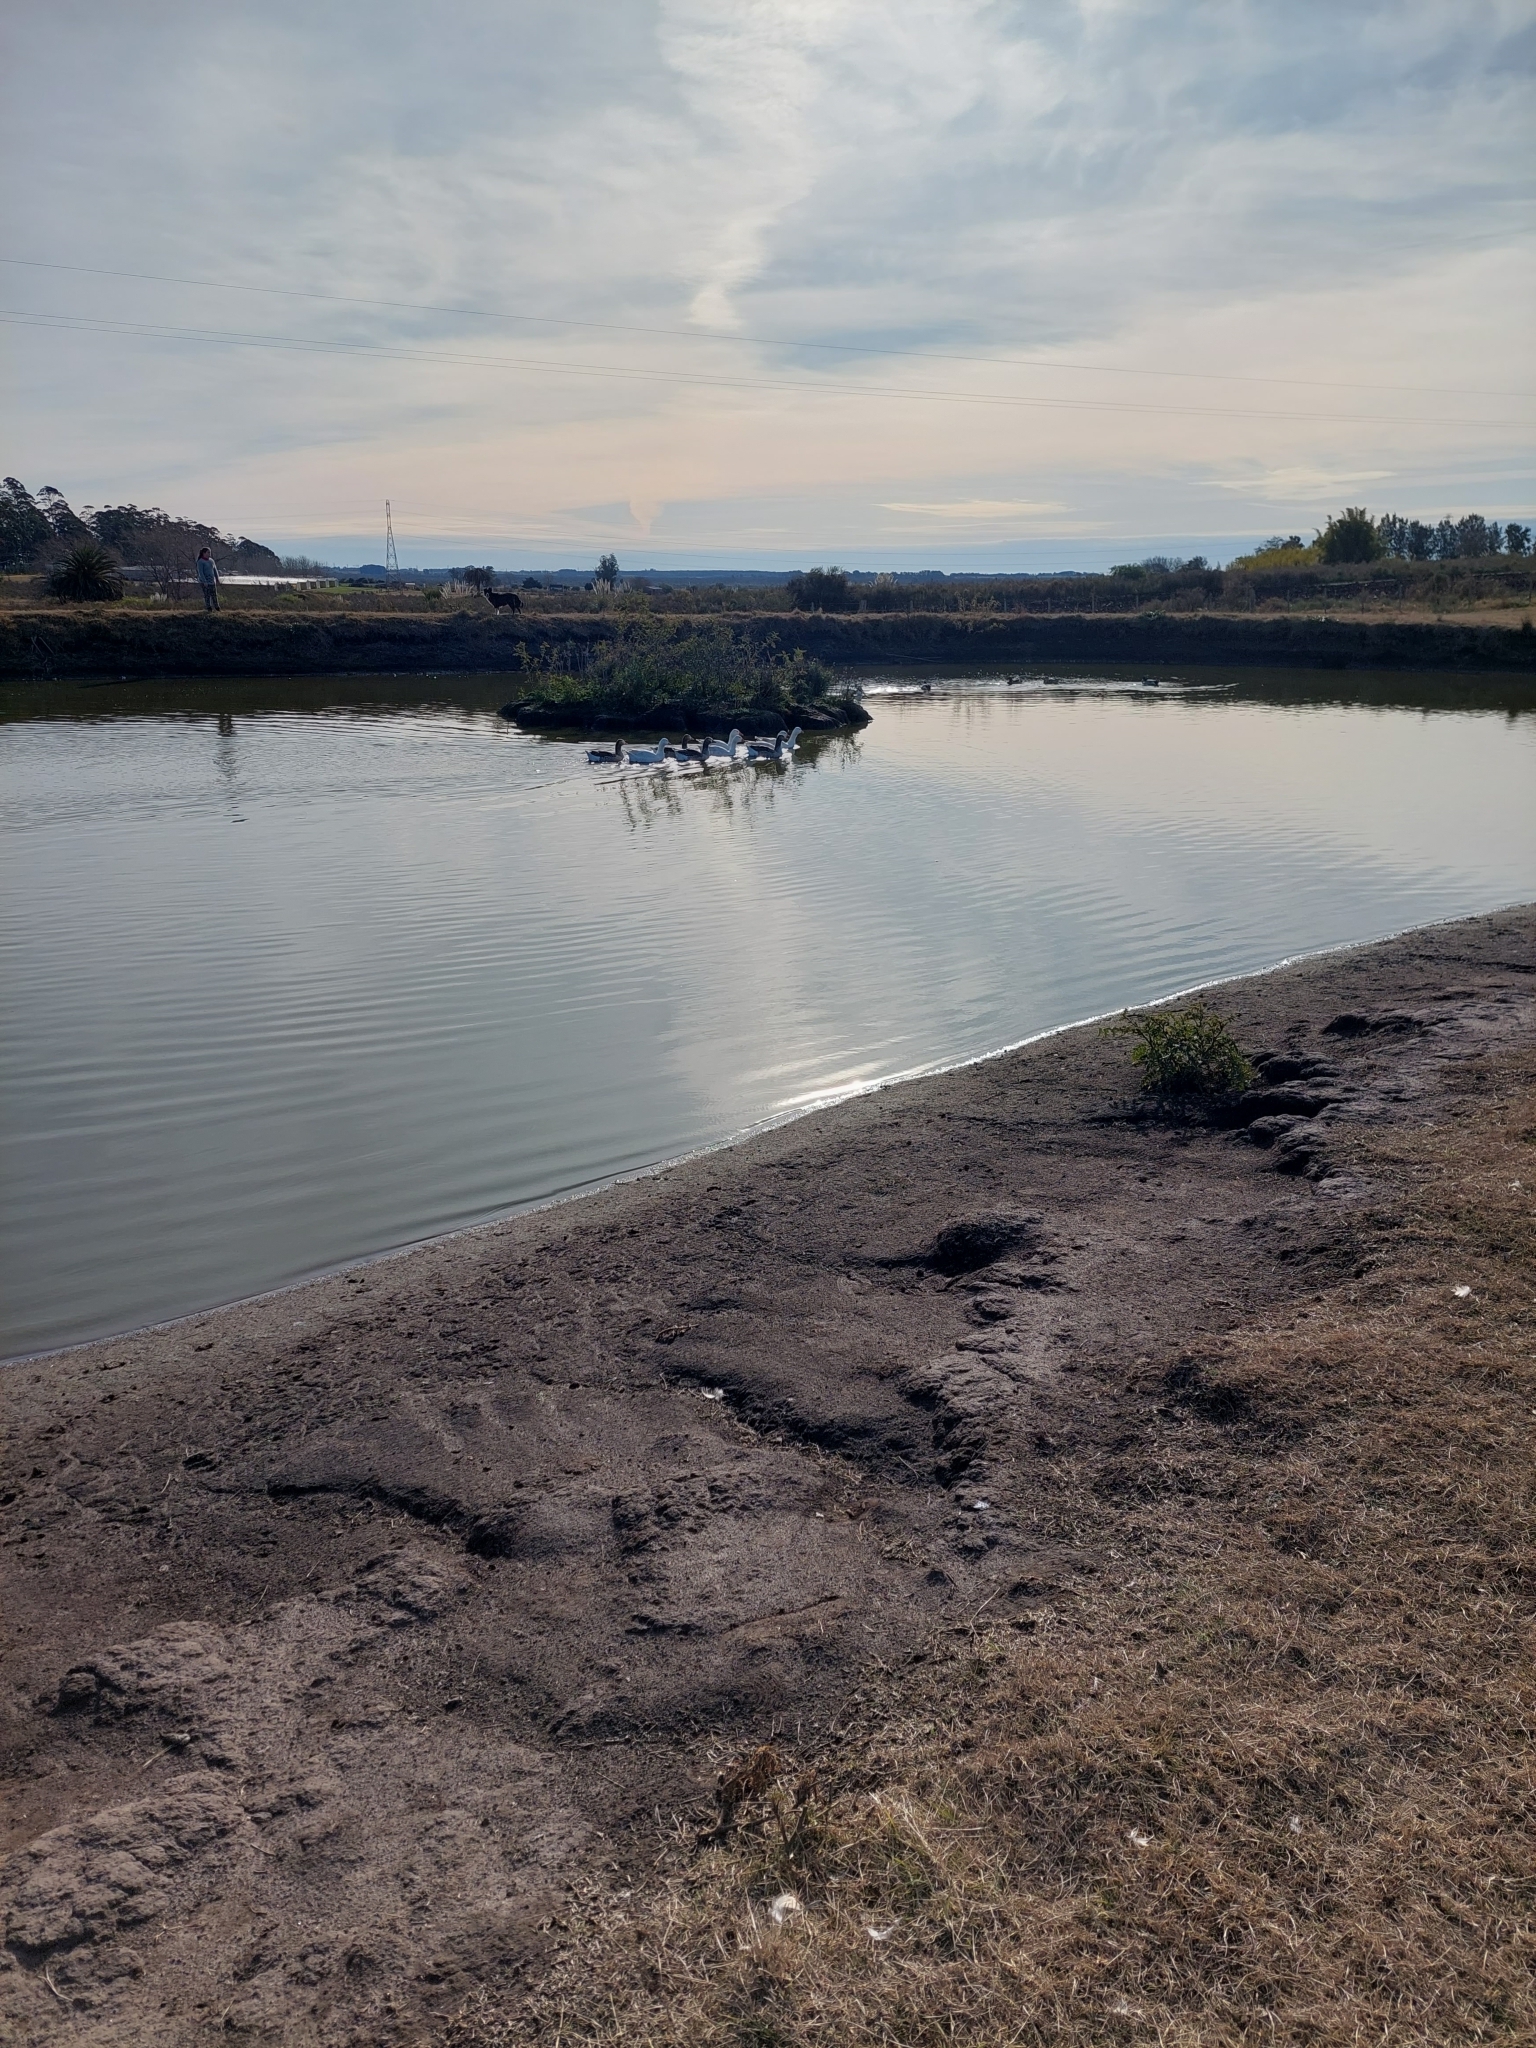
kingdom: Animalia
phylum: Chordata
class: Aves
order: Anseriformes
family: Anatidae
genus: Anser
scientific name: Anser anser
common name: Greylag goose
